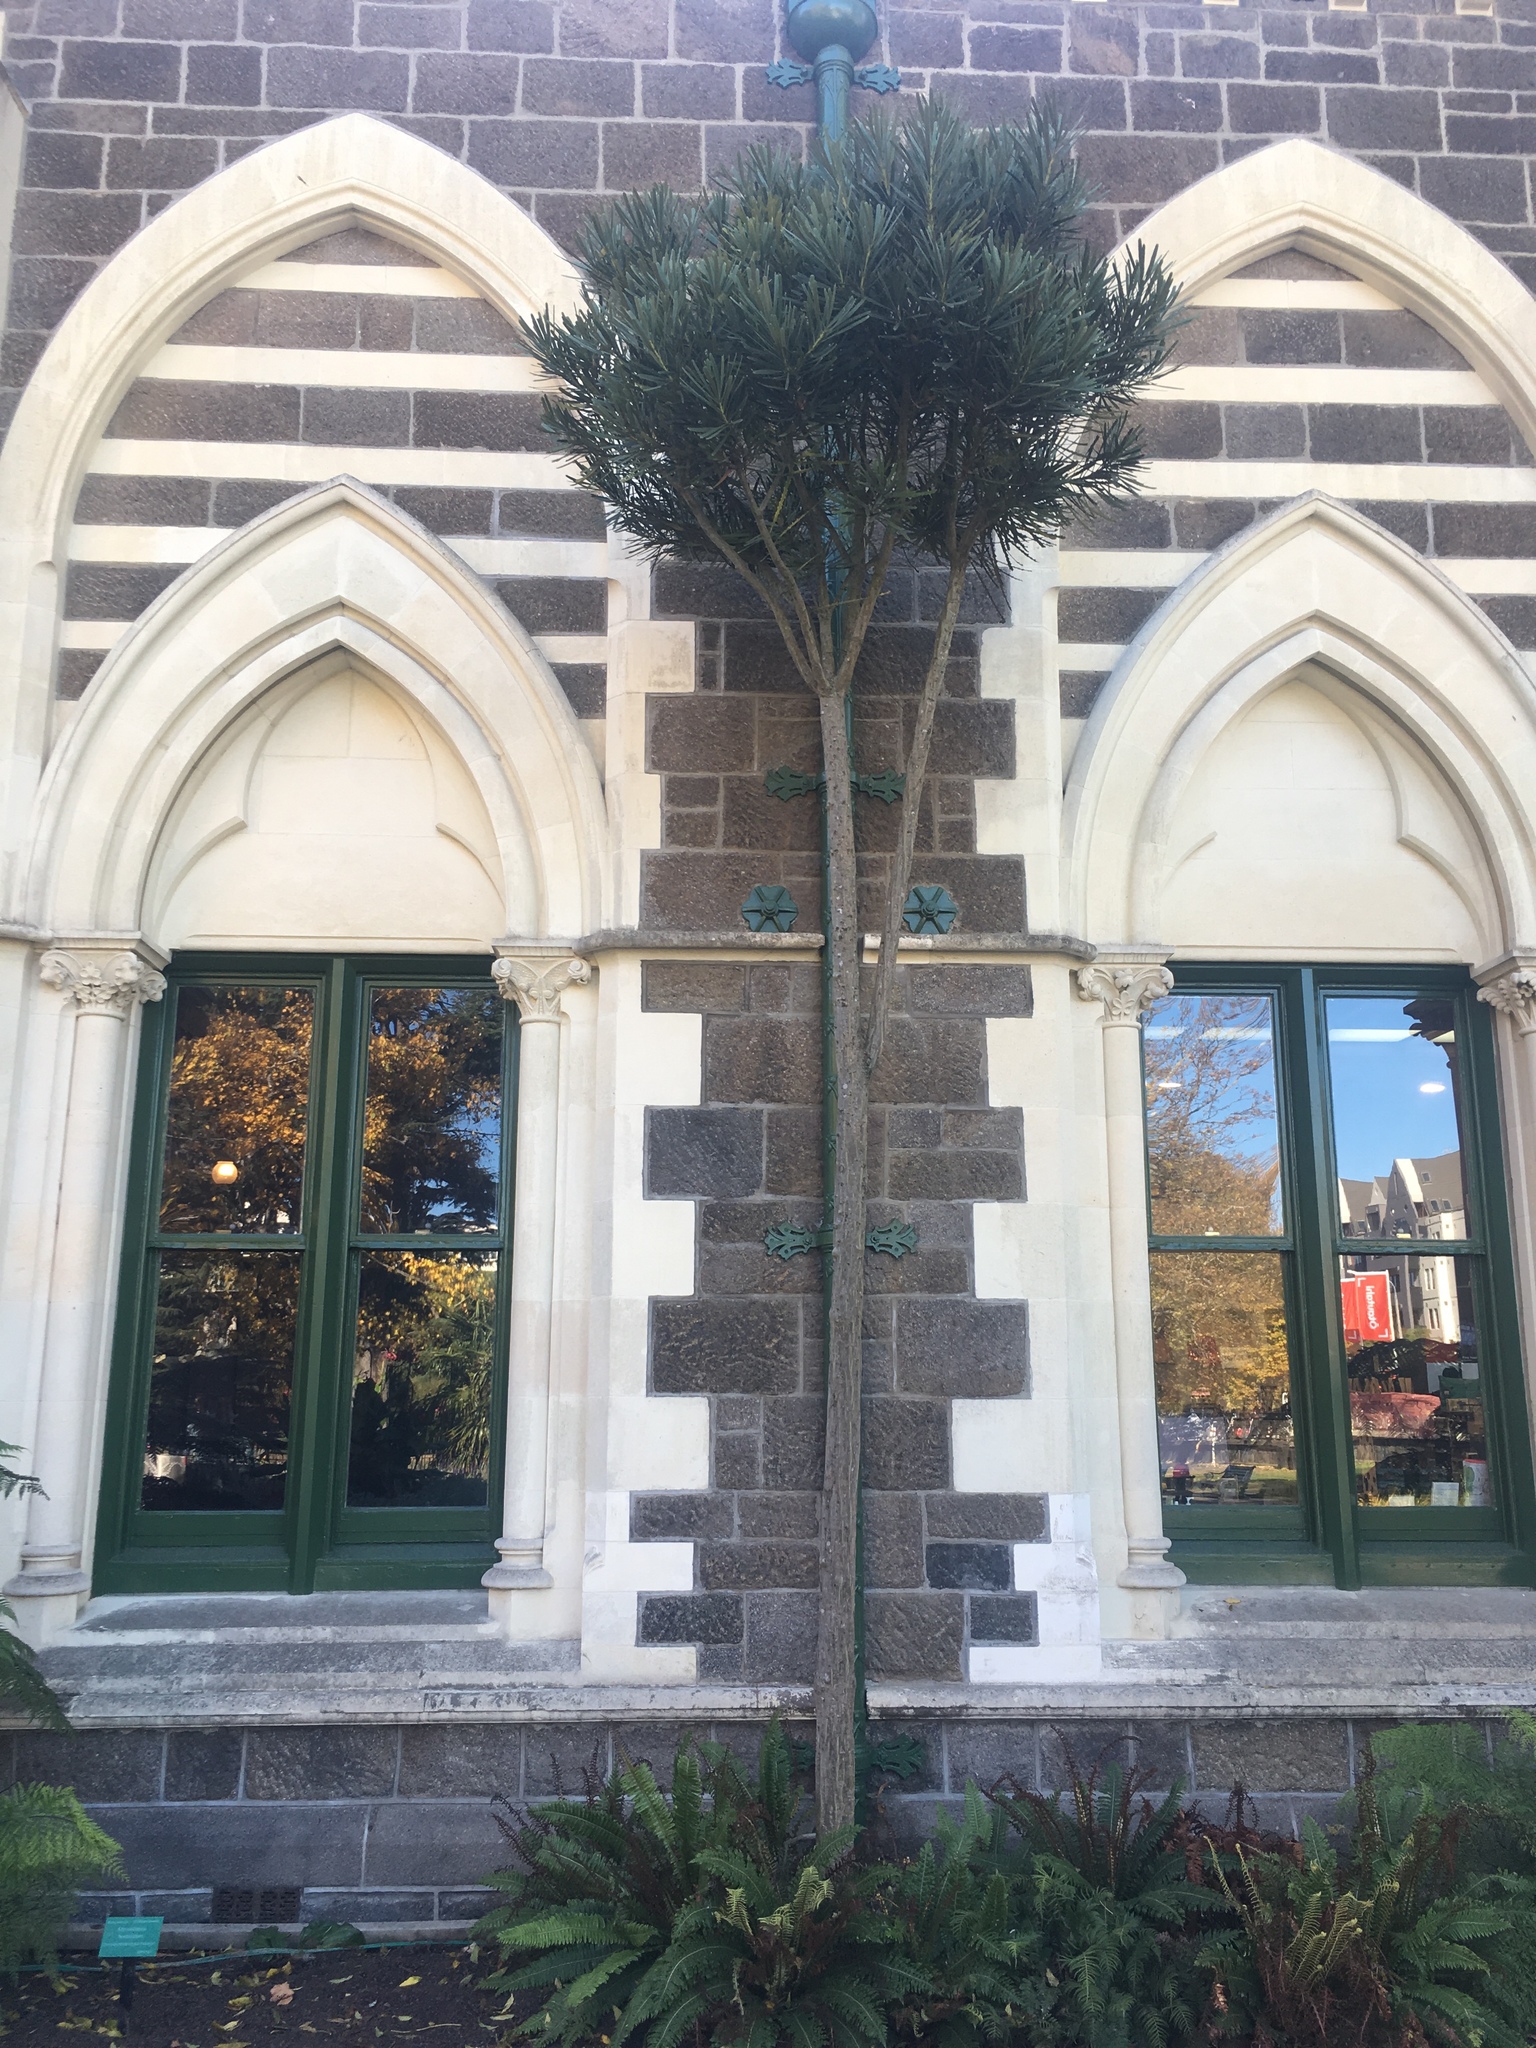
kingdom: Plantae
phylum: Tracheophyta
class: Magnoliopsida
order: Apiales
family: Araliaceae
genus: Pseudopanax
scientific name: Pseudopanax crassifolius
